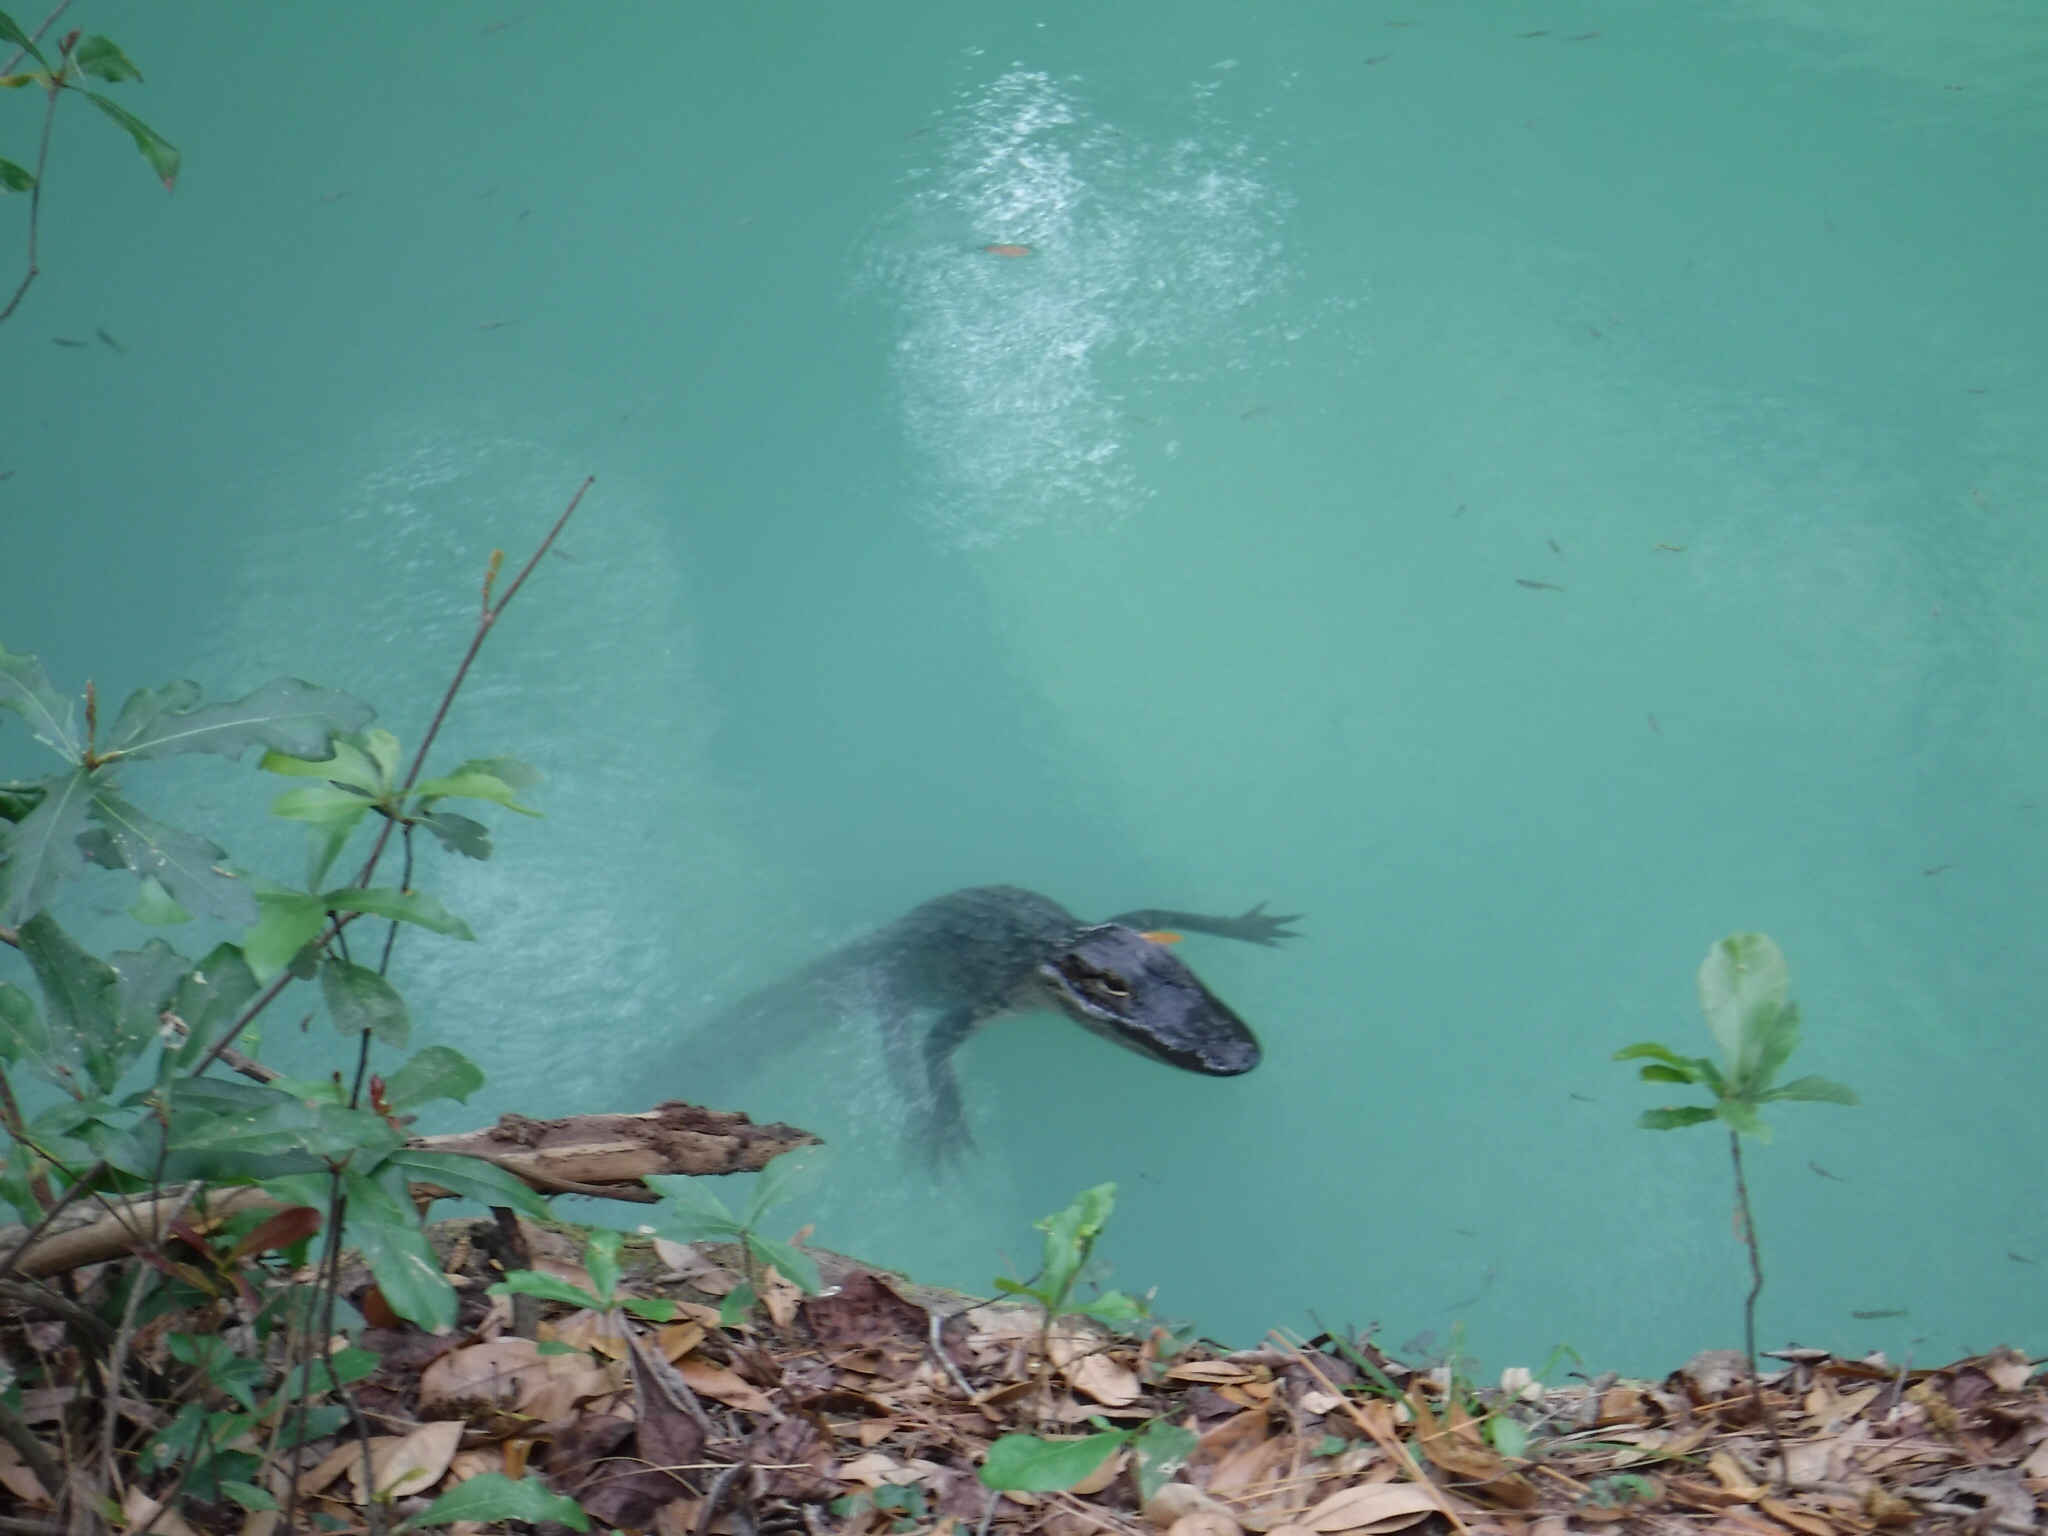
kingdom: Animalia
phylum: Chordata
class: Crocodylia
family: Alligatoridae
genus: Alligator
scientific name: Alligator mississippiensis
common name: American alligator
